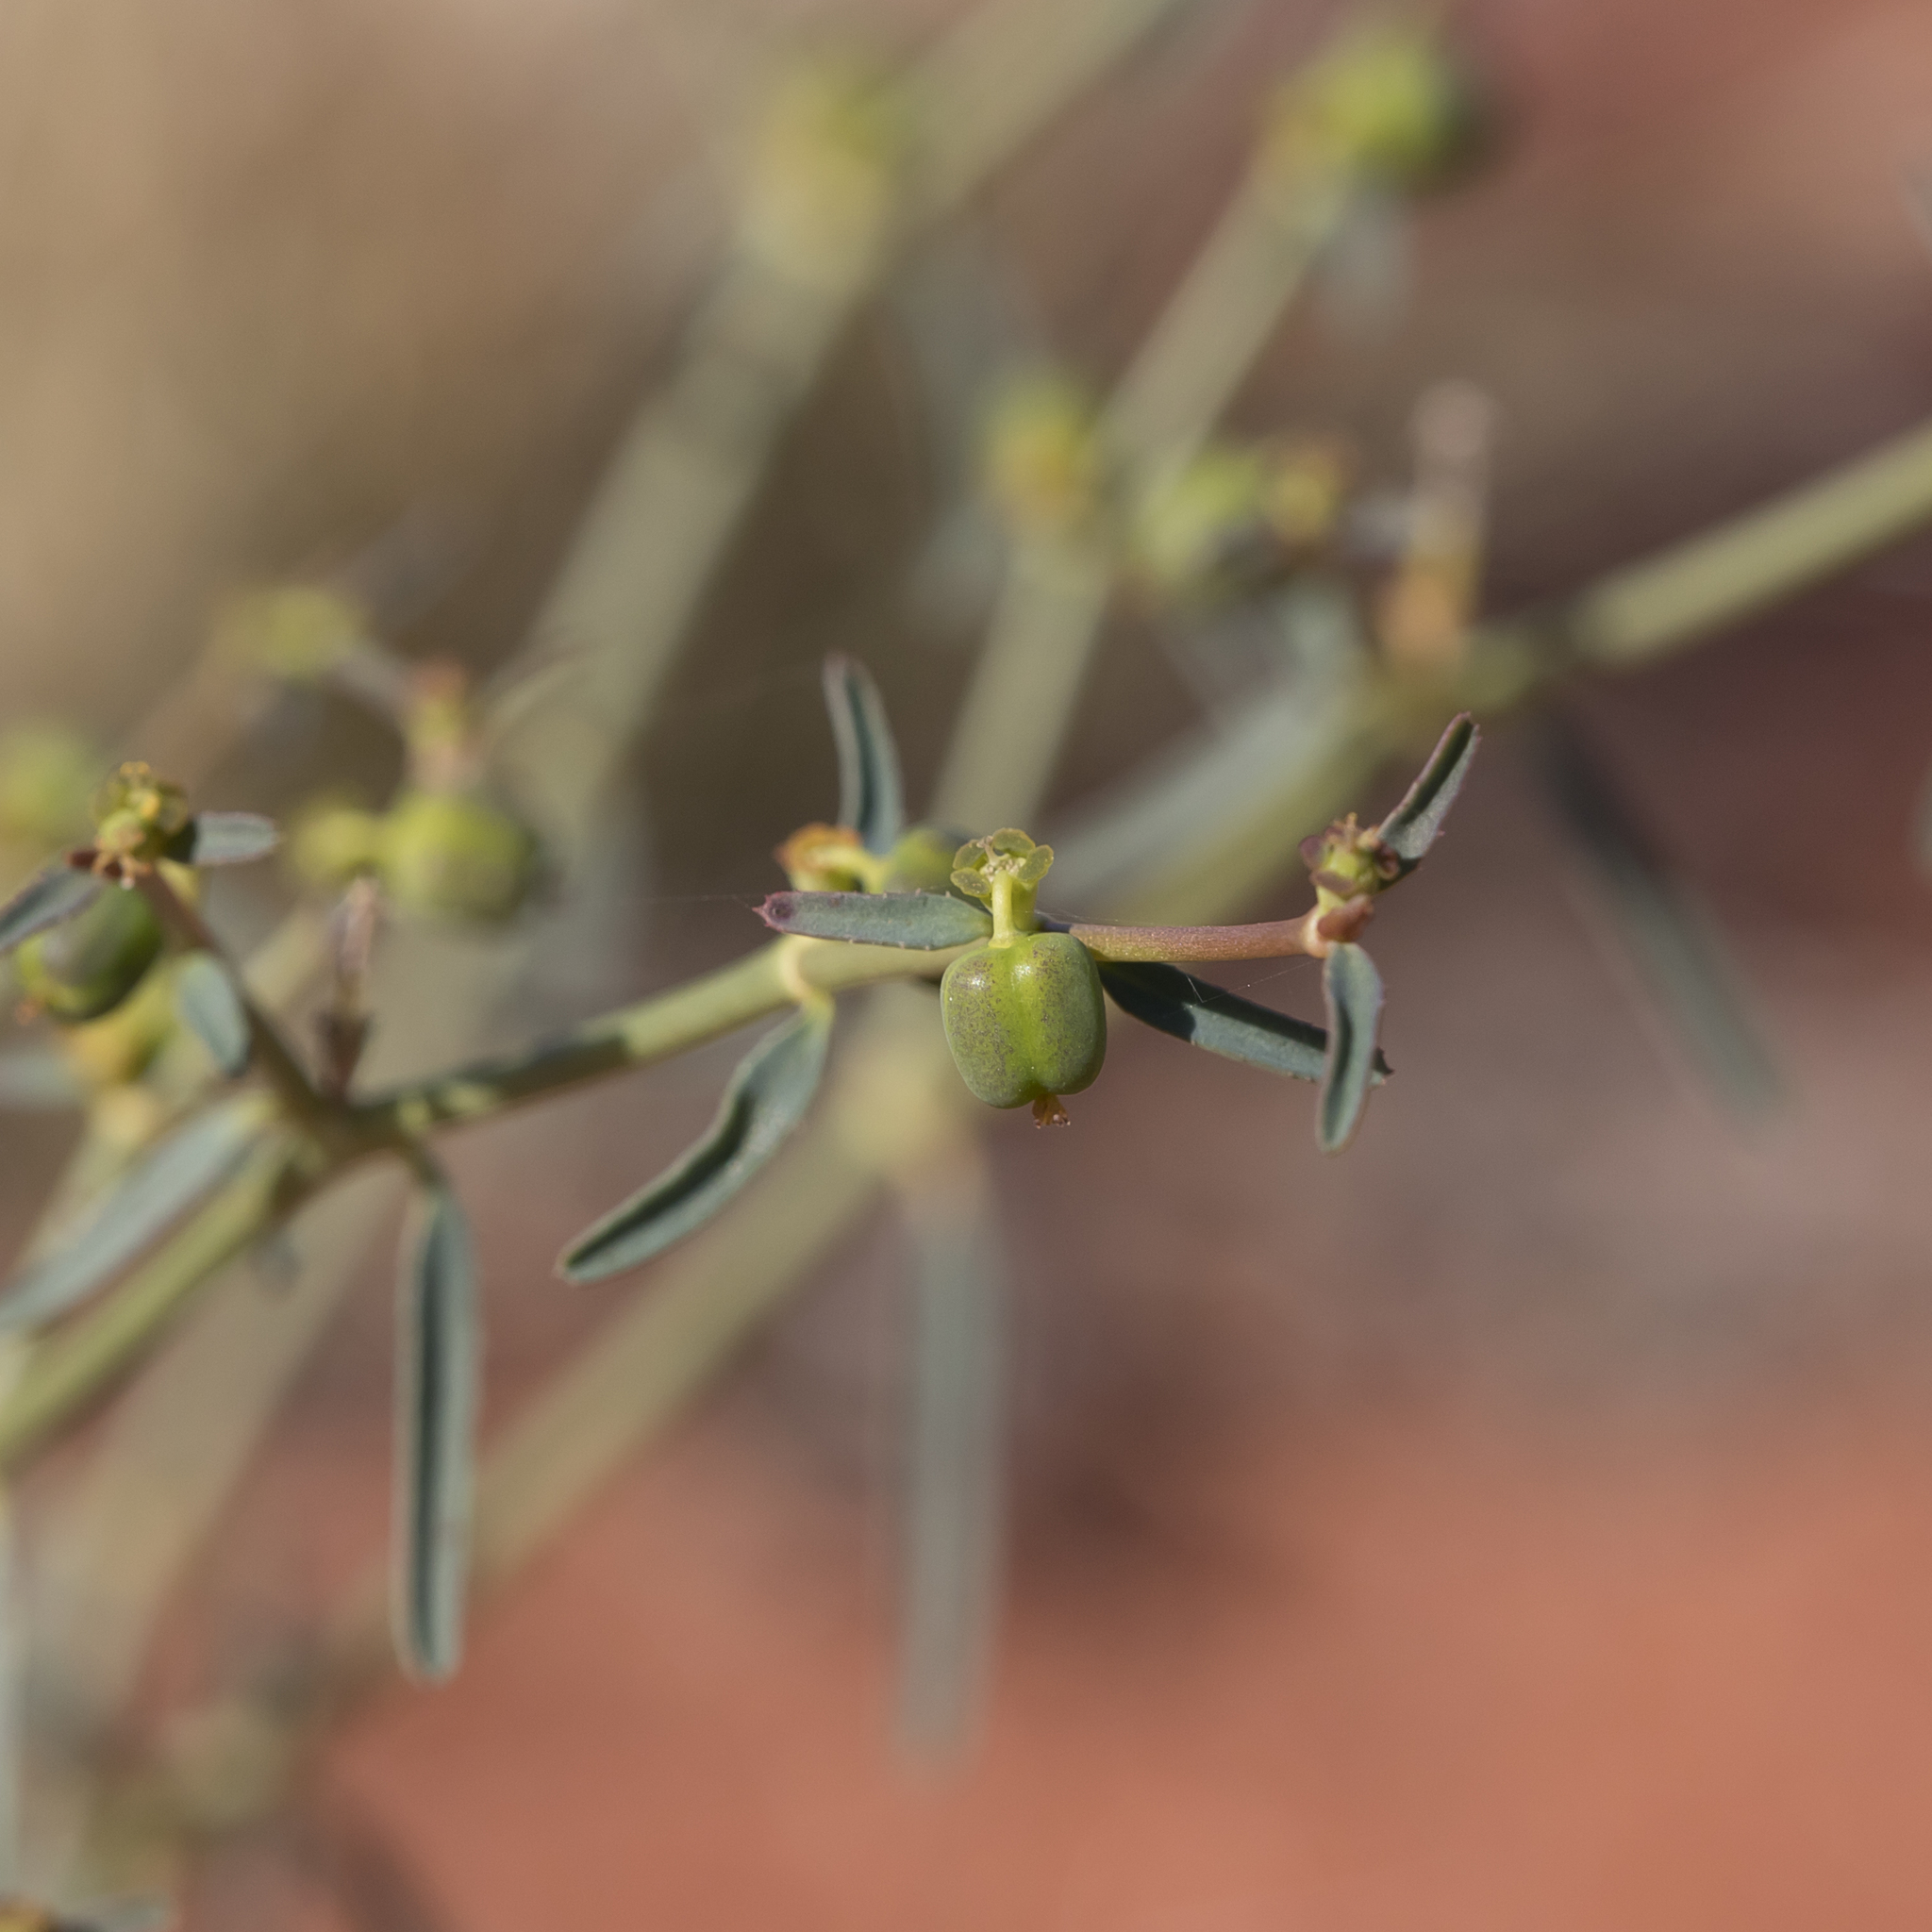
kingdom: Plantae
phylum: Tracheophyta
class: Magnoliopsida
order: Malpighiales
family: Euphorbiaceae
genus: Euphorbia
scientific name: Euphorbia tannensis
